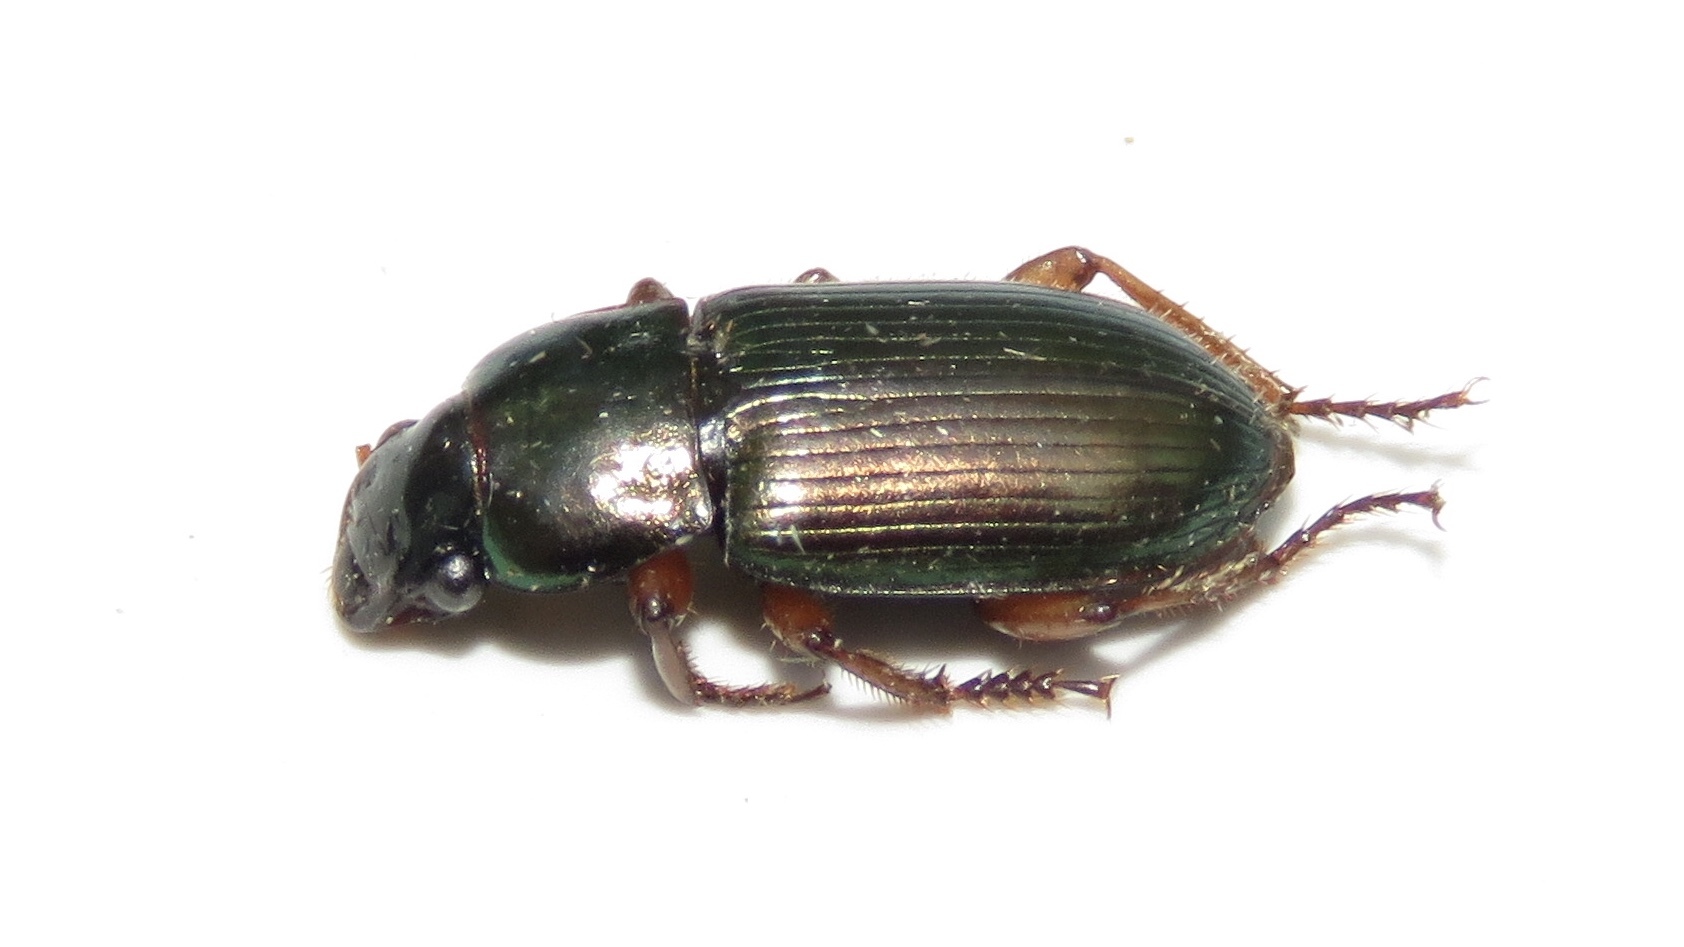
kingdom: Animalia
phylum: Arthropoda
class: Insecta
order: Coleoptera
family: Carabidae
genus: Harpalus
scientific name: Harpalus affinis
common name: Polychrome harp ground beetle
